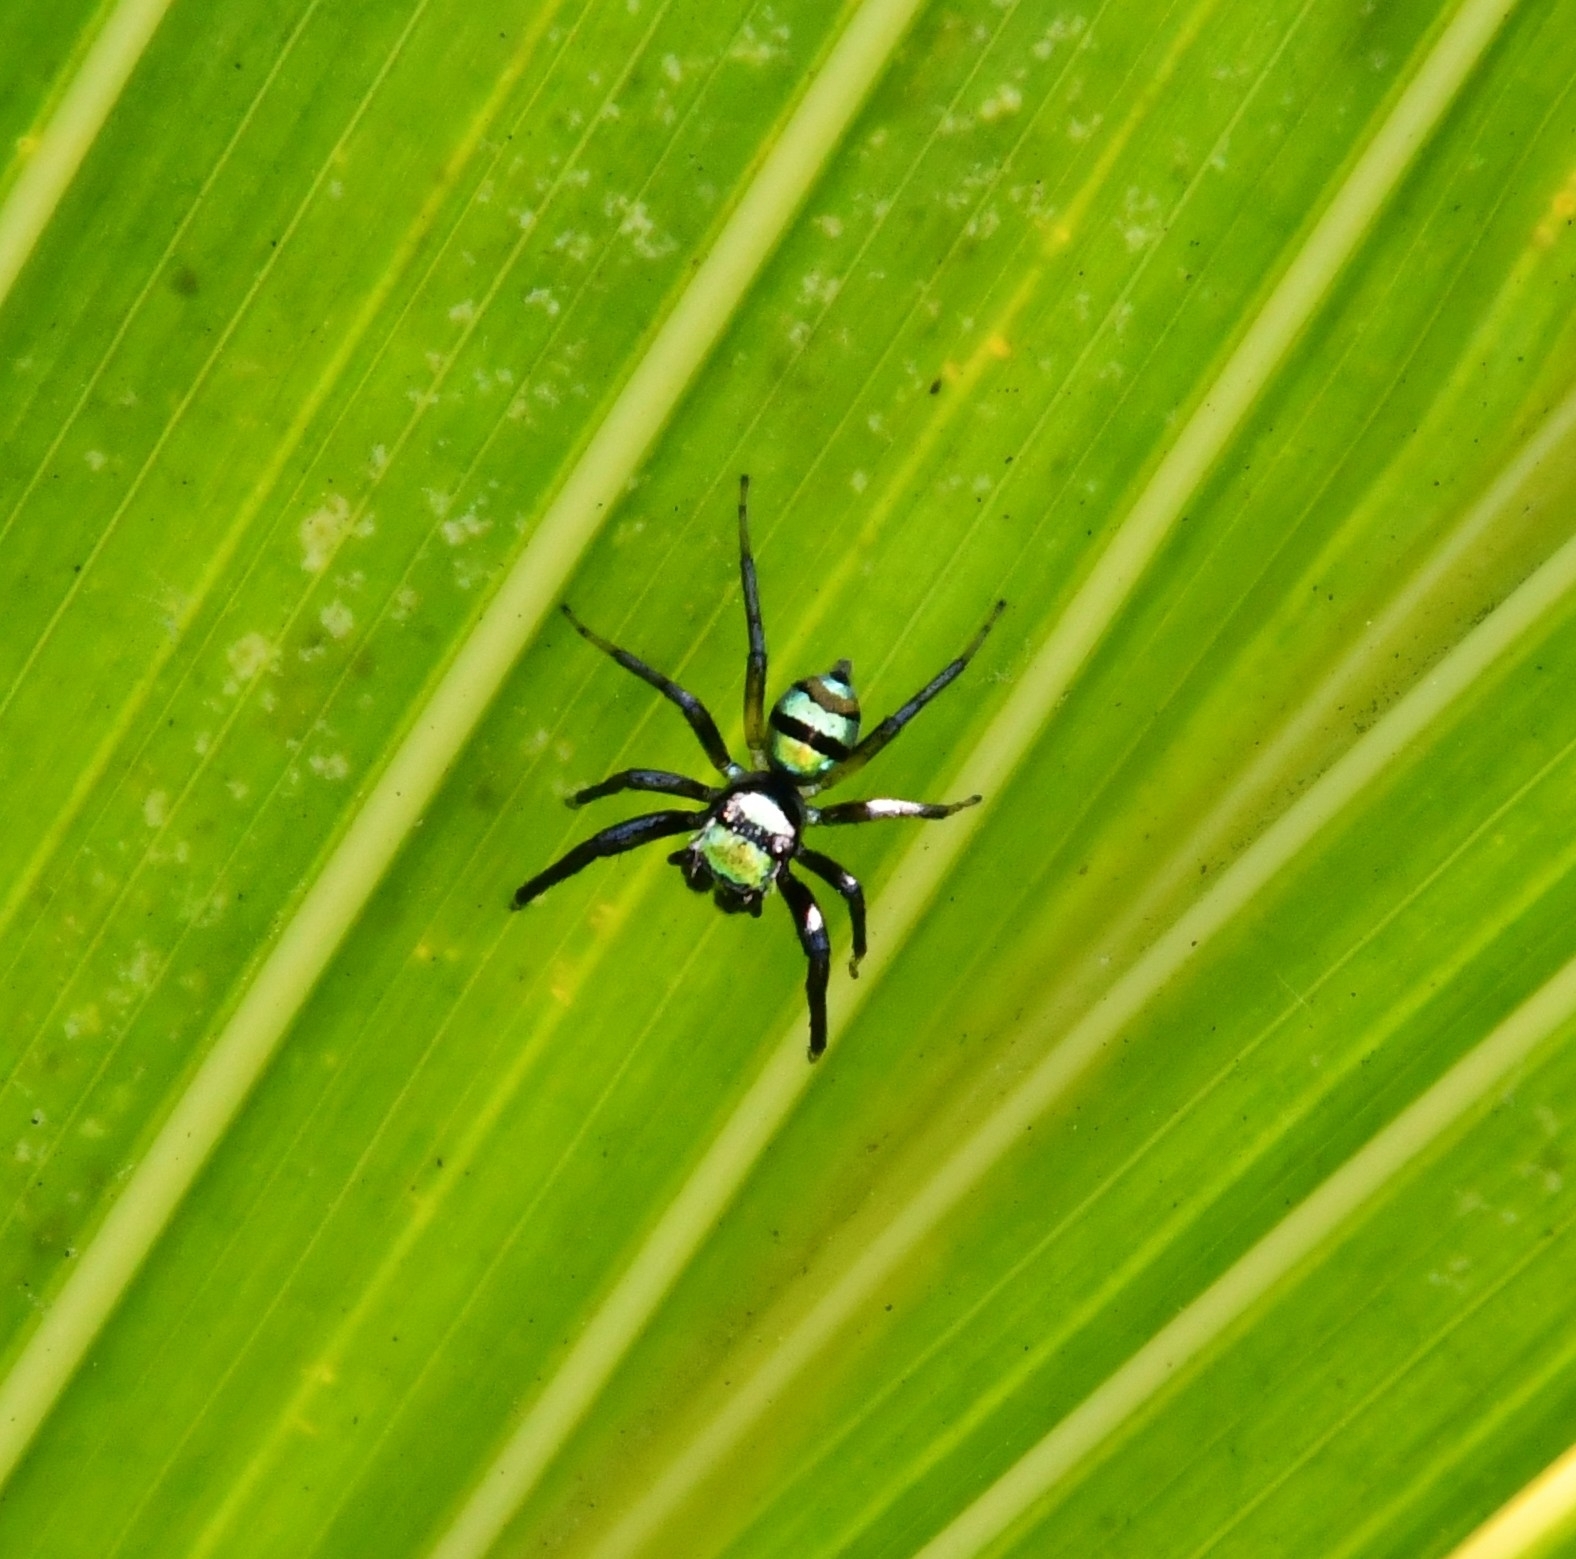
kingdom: Animalia
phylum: Arthropoda
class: Arachnida
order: Araneae
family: Salticidae
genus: Phintella
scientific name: Phintella vittata
